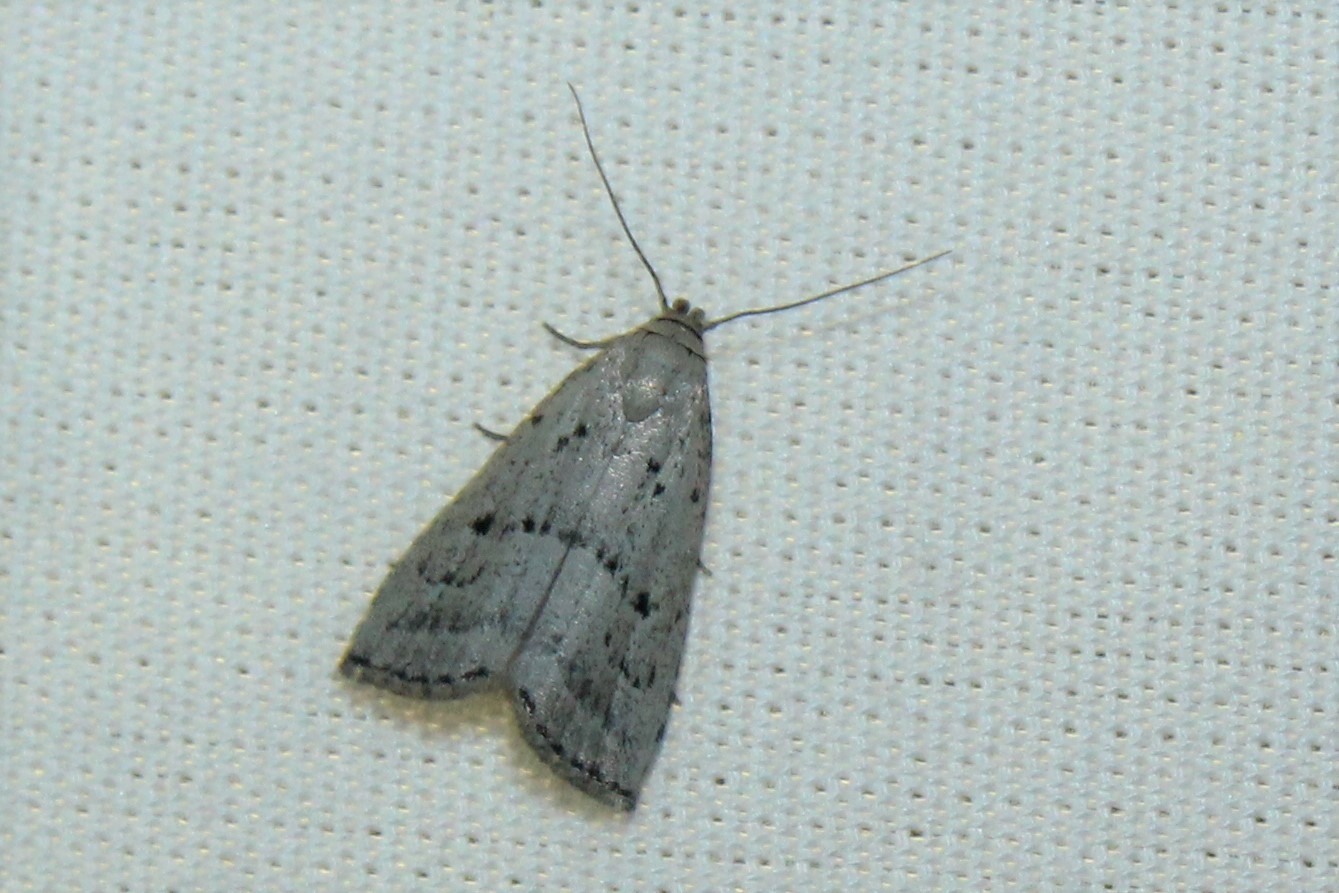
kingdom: Animalia
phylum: Arthropoda
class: Insecta
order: Lepidoptera
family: Erebidae
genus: Hypenodes
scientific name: Hypenodes fractilinea
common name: Broken-line hypenodes moth
